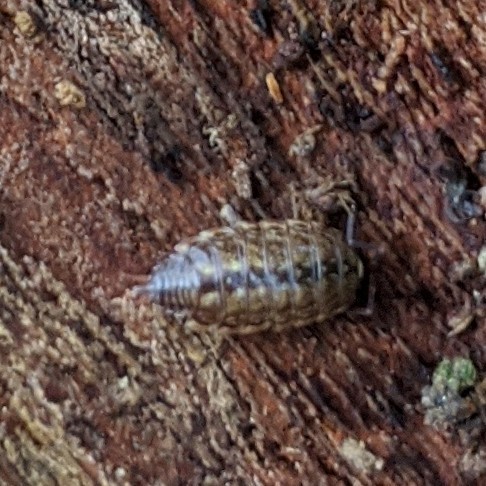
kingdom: Animalia
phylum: Arthropoda
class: Malacostraca
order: Isopoda
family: Philosciidae
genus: Philoscia
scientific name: Philoscia muscorum
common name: Common striped woodlouse
